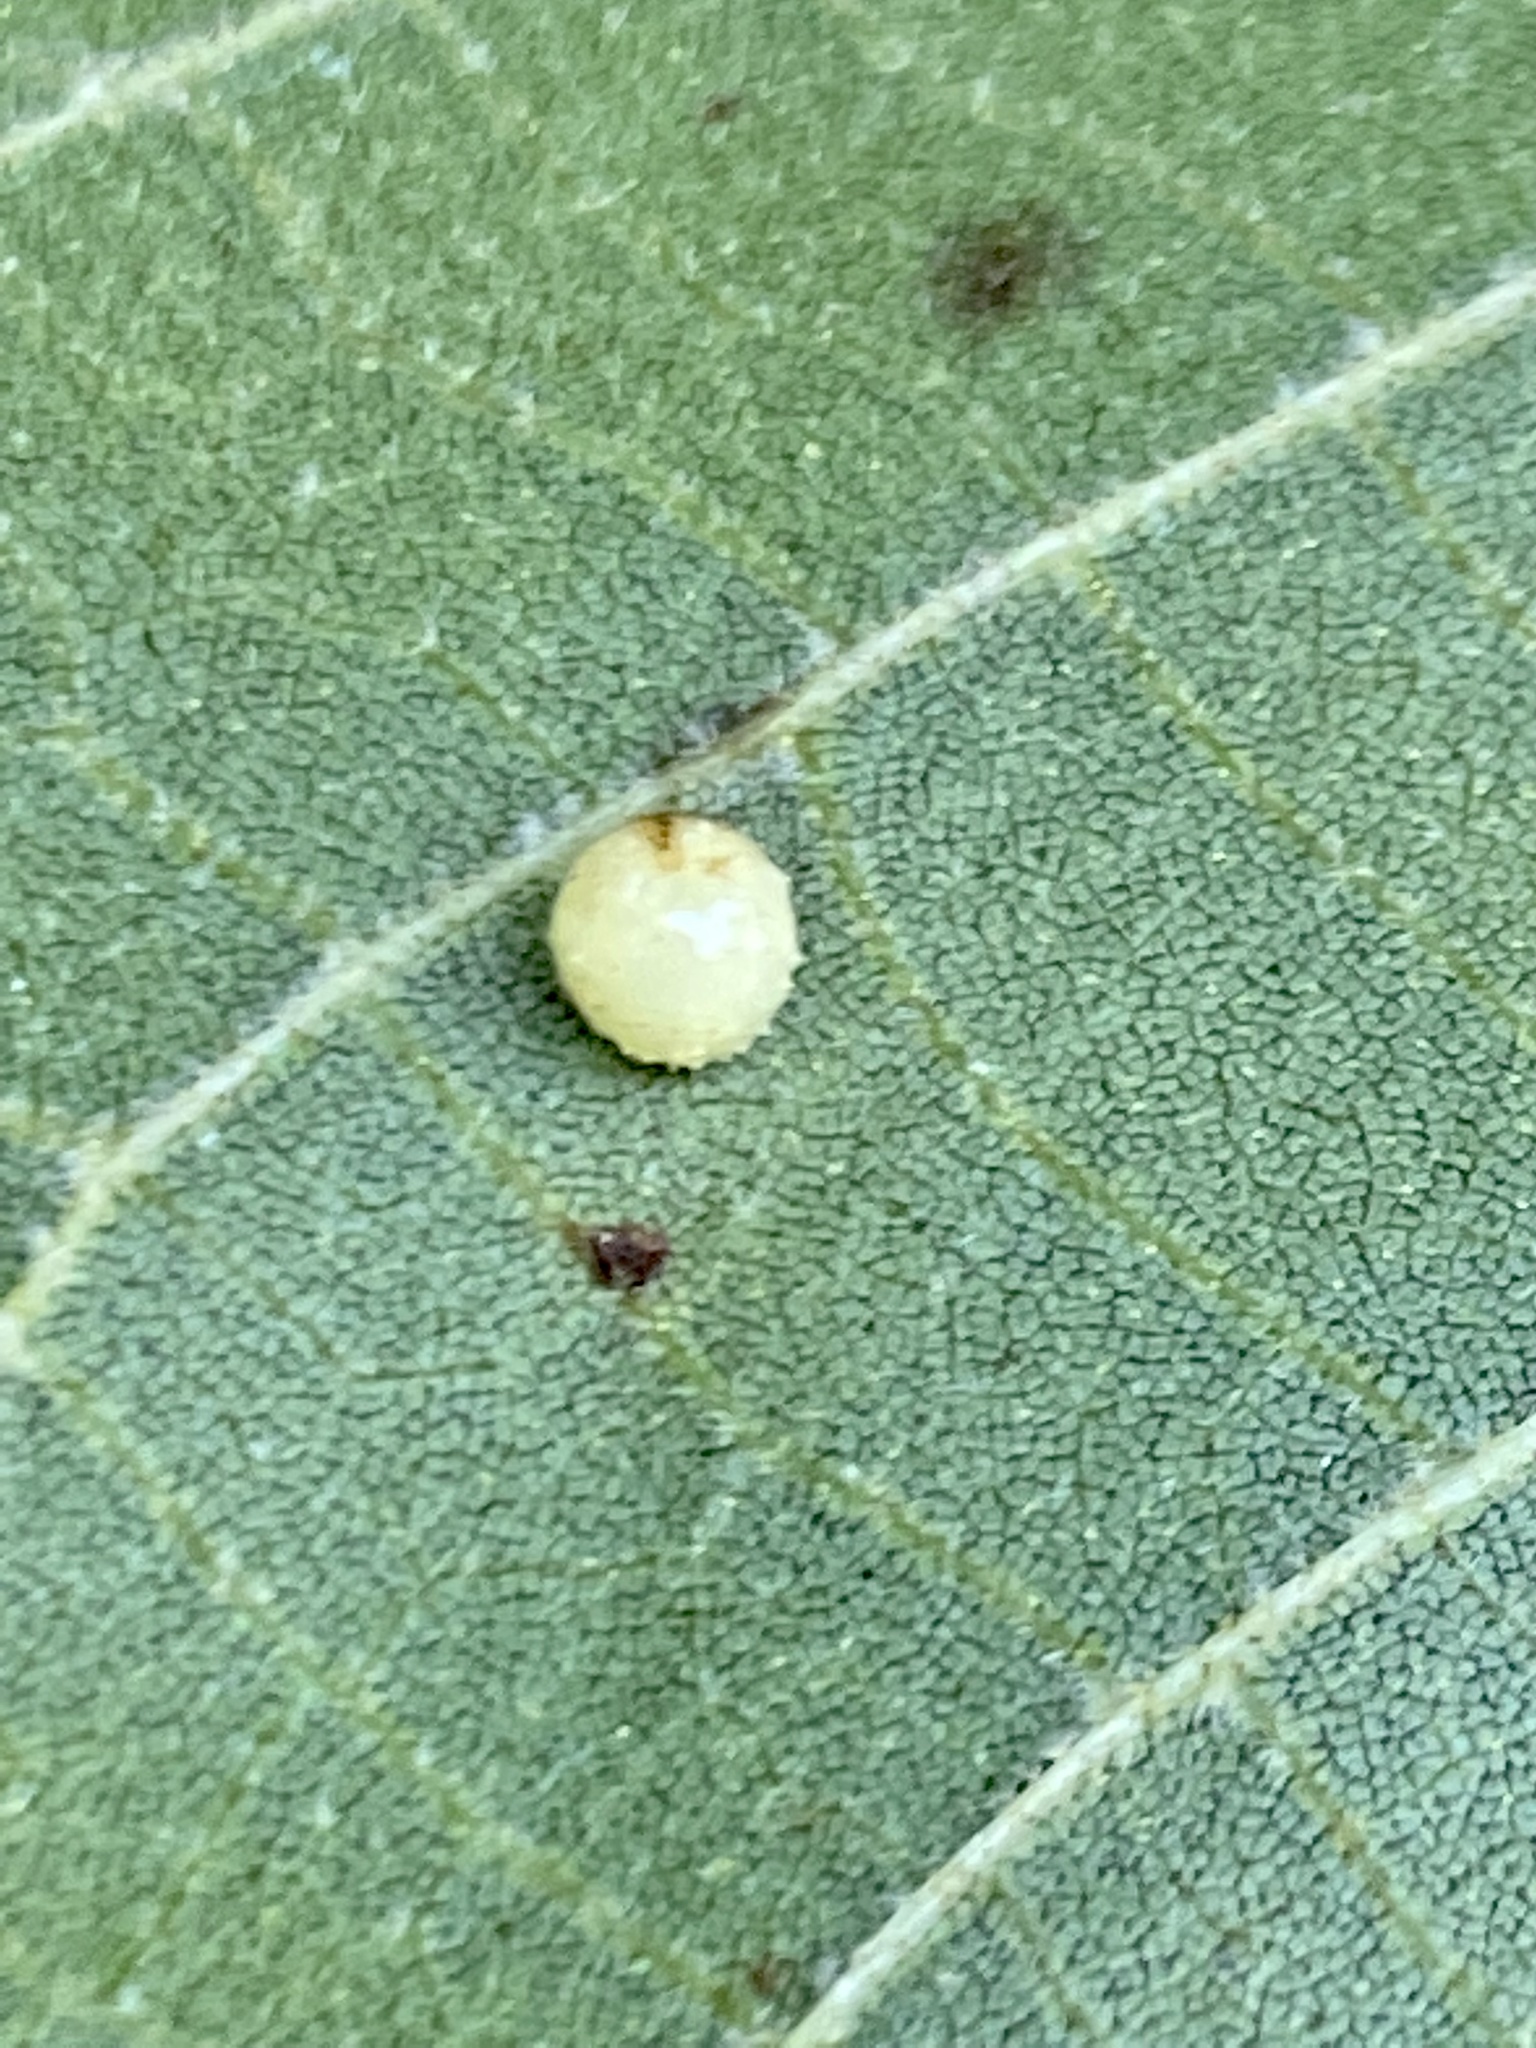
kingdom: Animalia
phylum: Arthropoda
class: Insecta
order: Diptera
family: Cecidomyiidae
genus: Caryomyia
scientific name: Caryomyia tuberculata
